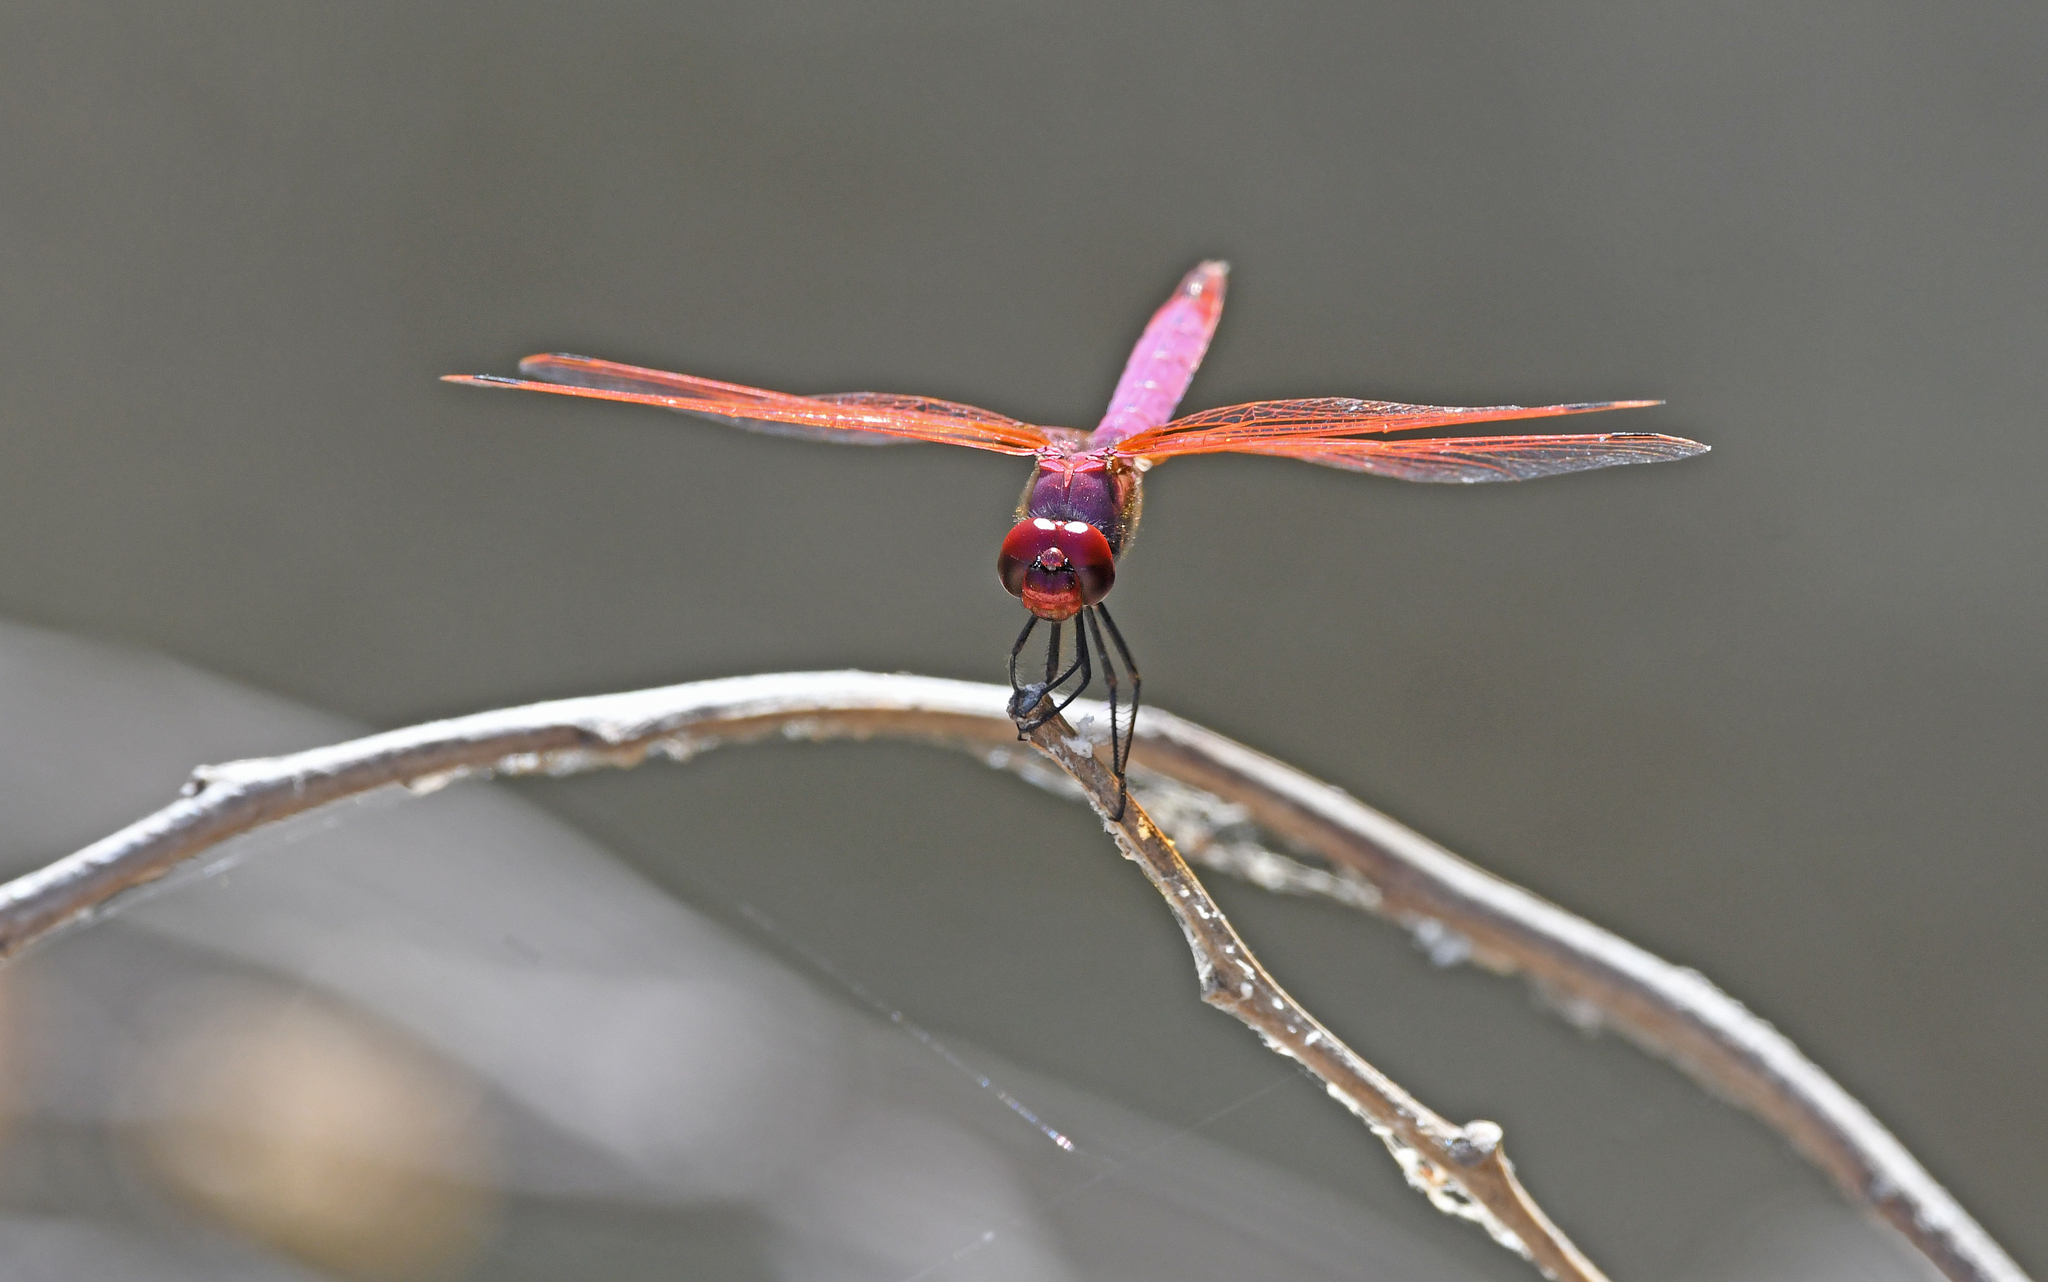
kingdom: Animalia
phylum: Arthropoda
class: Insecta
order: Odonata
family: Libellulidae
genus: Trithemis
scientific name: Trithemis annulata
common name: Violet dropwing
